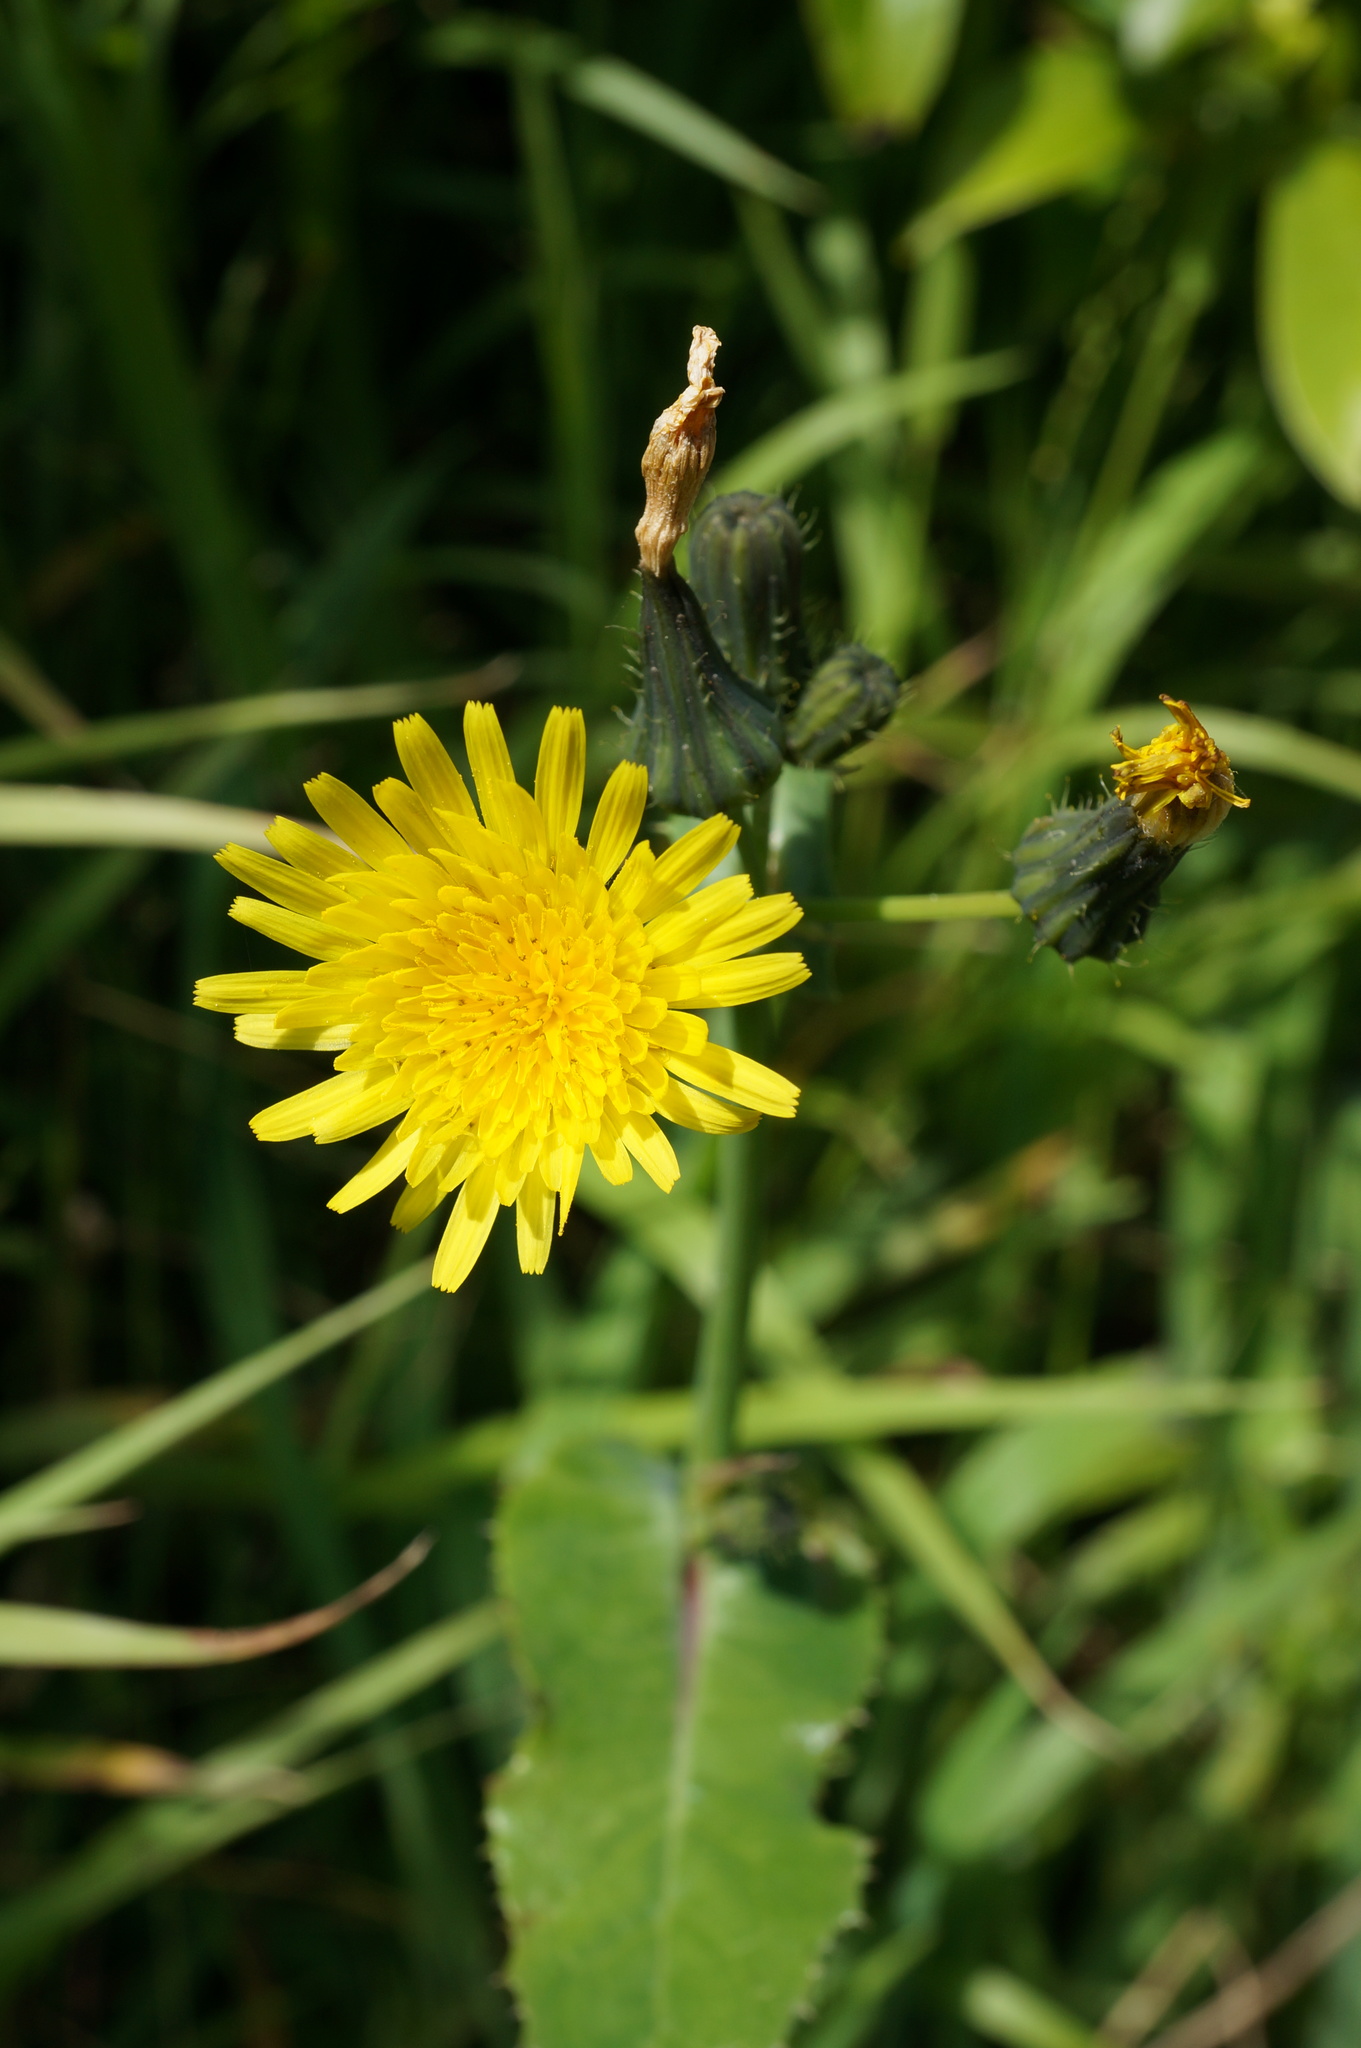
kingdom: Plantae
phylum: Tracheophyta
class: Magnoliopsida
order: Asterales
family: Asteraceae
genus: Sonchus
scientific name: Sonchus oleraceus
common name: Common sowthistle
